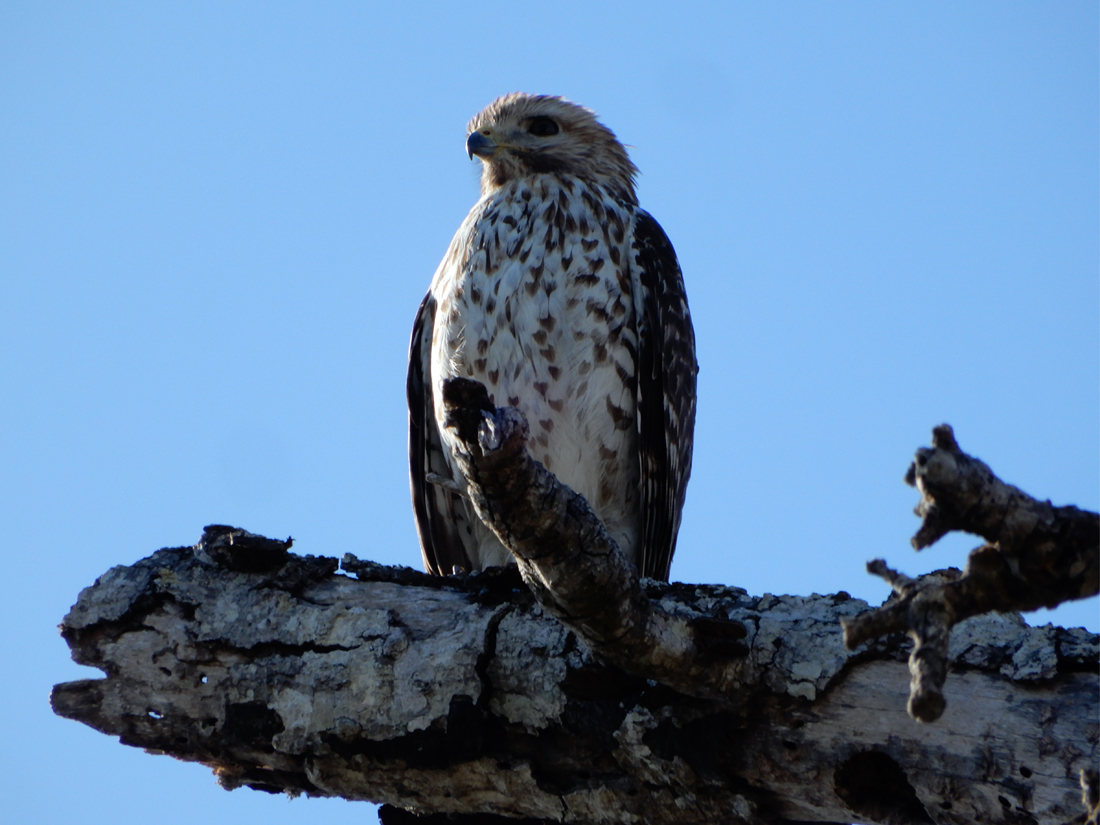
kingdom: Animalia
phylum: Chordata
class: Aves
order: Accipitriformes
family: Accipitridae
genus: Buteo
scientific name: Buteo lineatus
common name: Red-shouldered hawk
